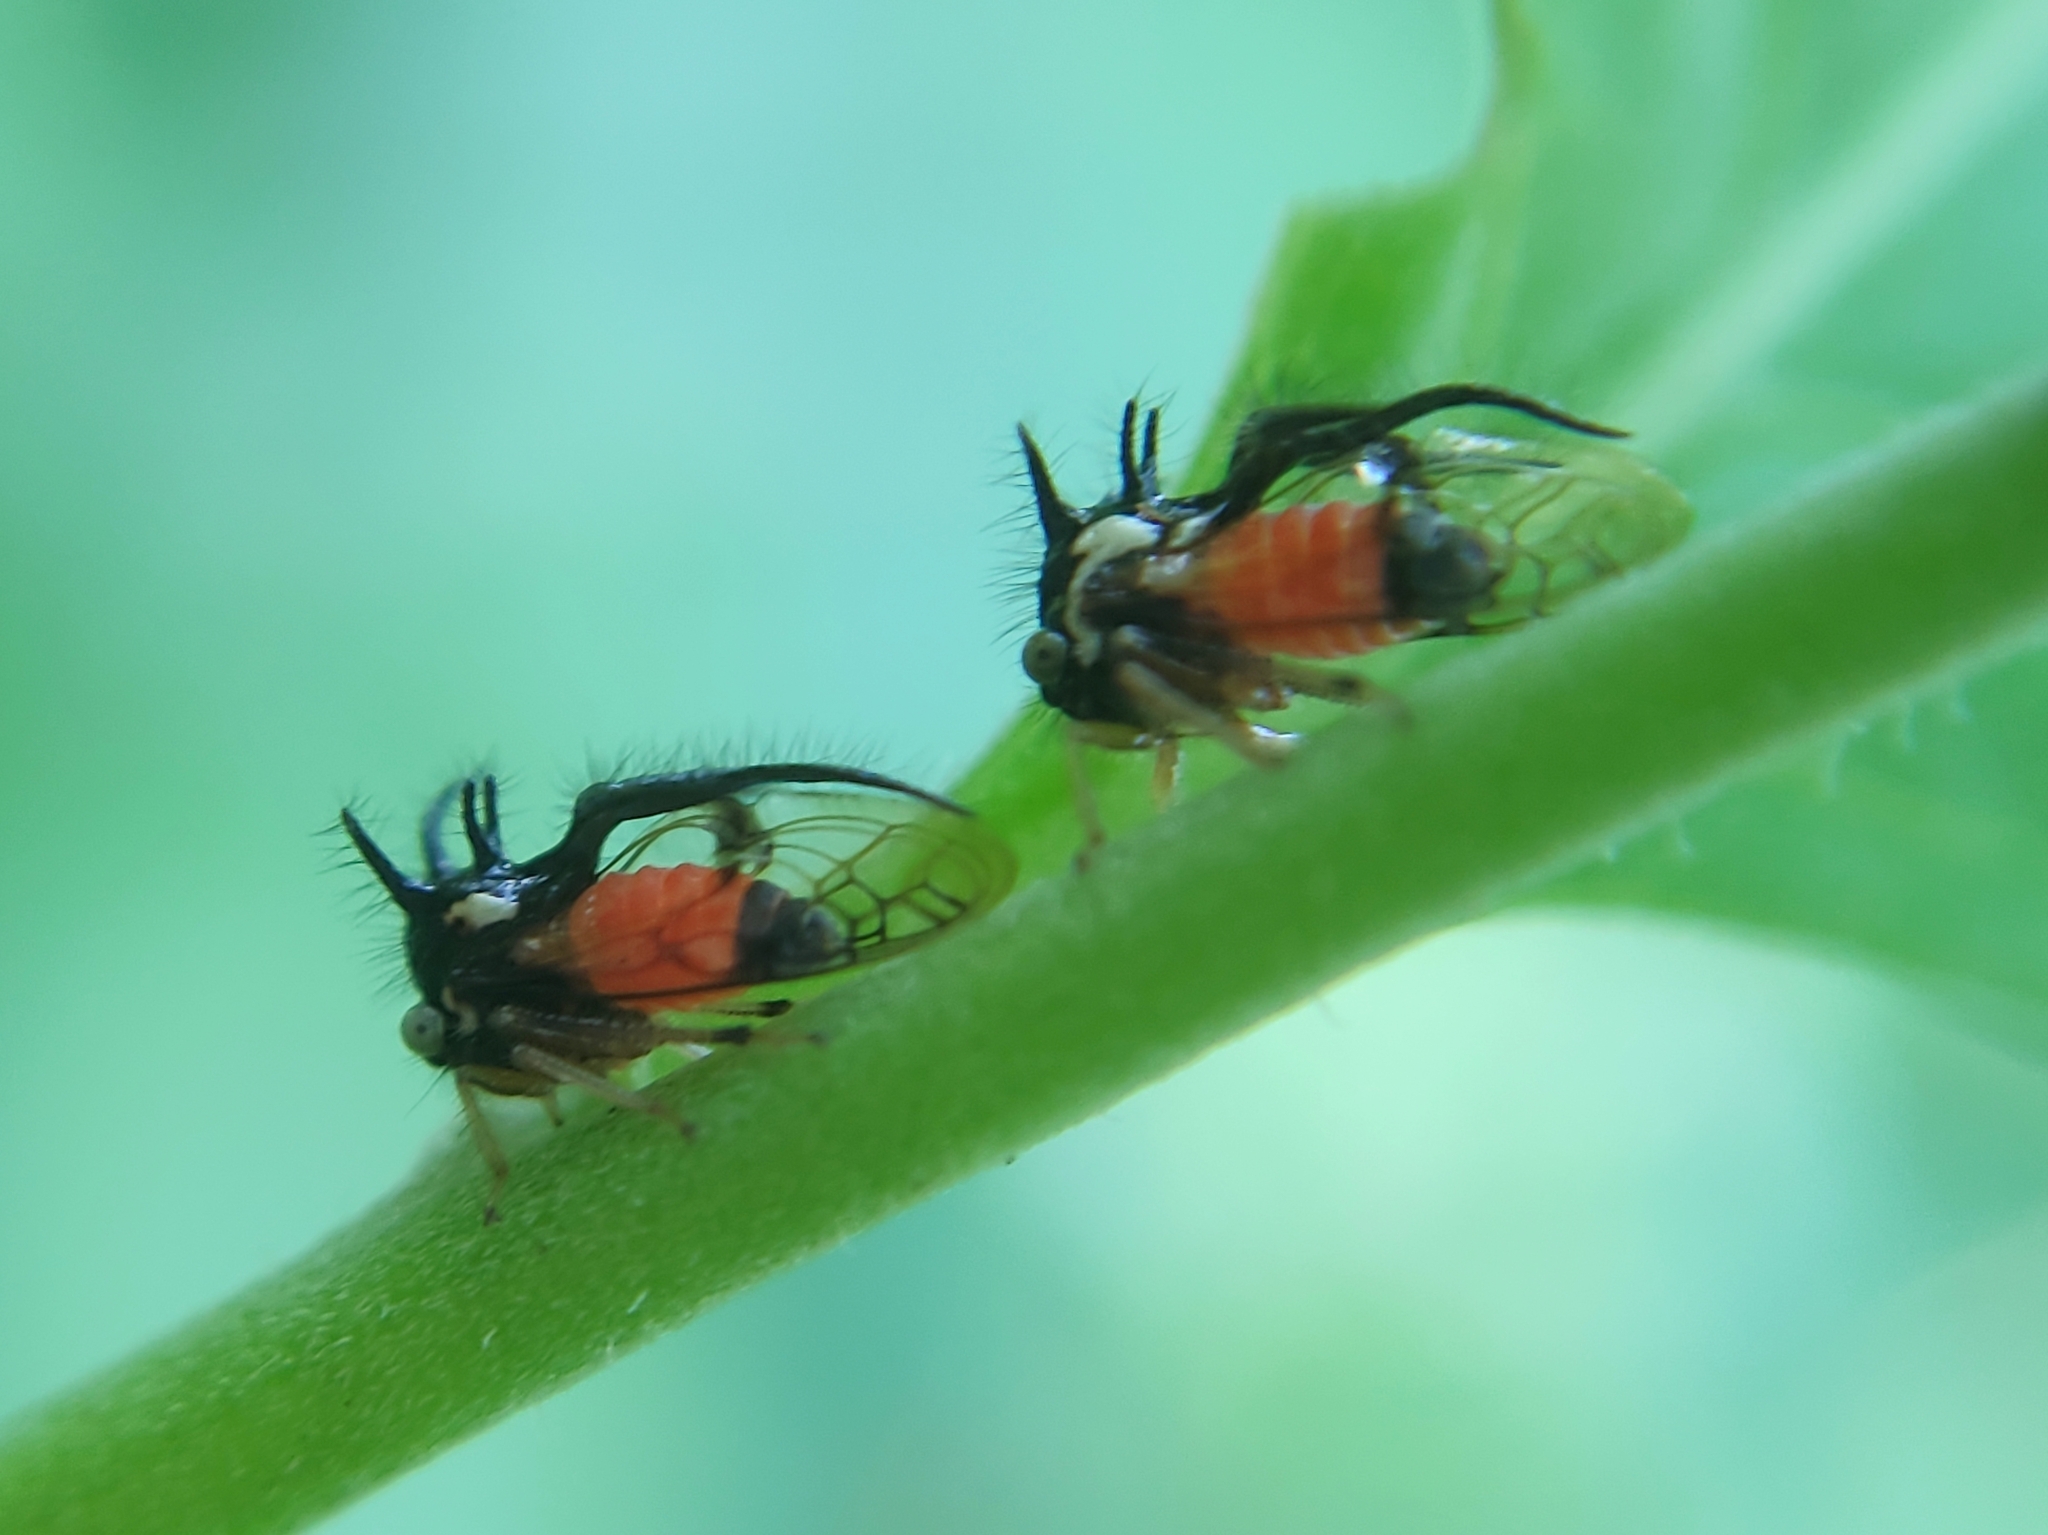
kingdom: Animalia
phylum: Arthropoda
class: Insecta
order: Hemiptera
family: Membracidae
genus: Cyphonia
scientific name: Cyphonia trifida
